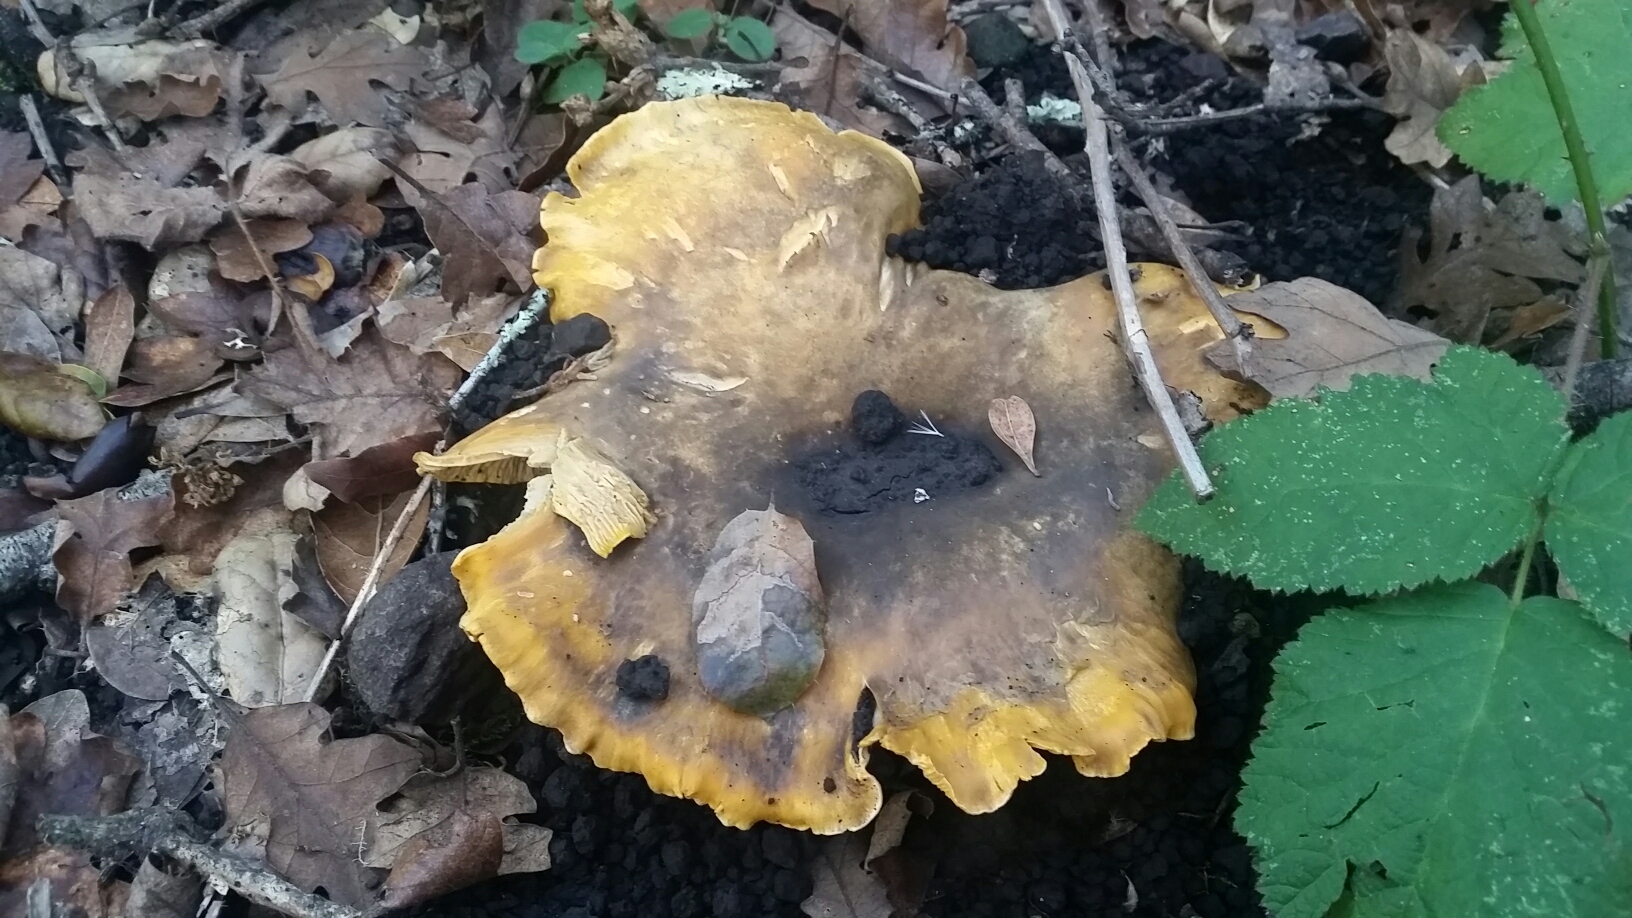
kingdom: Fungi
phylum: Basidiomycota
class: Agaricomycetes
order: Cantharellales
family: Hydnaceae
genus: Cantharellus
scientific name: Cantharellus californicus
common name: California golden chanterelle
